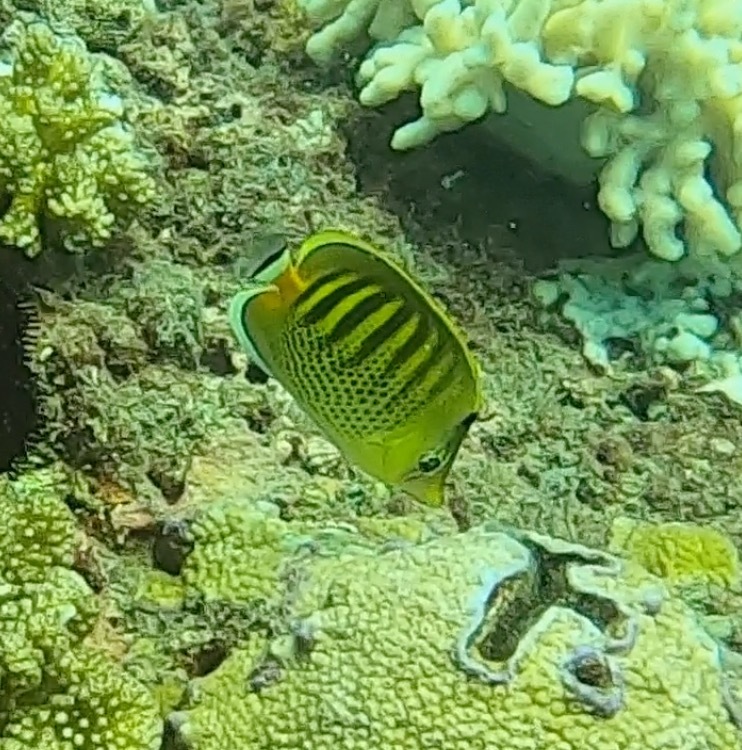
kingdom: Animalia
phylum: Chordata
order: Perciformes
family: Chaetodontidae
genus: Chaetodon
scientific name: Chaetodon punctatofasciatus
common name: Spot-banded butterflyfish
